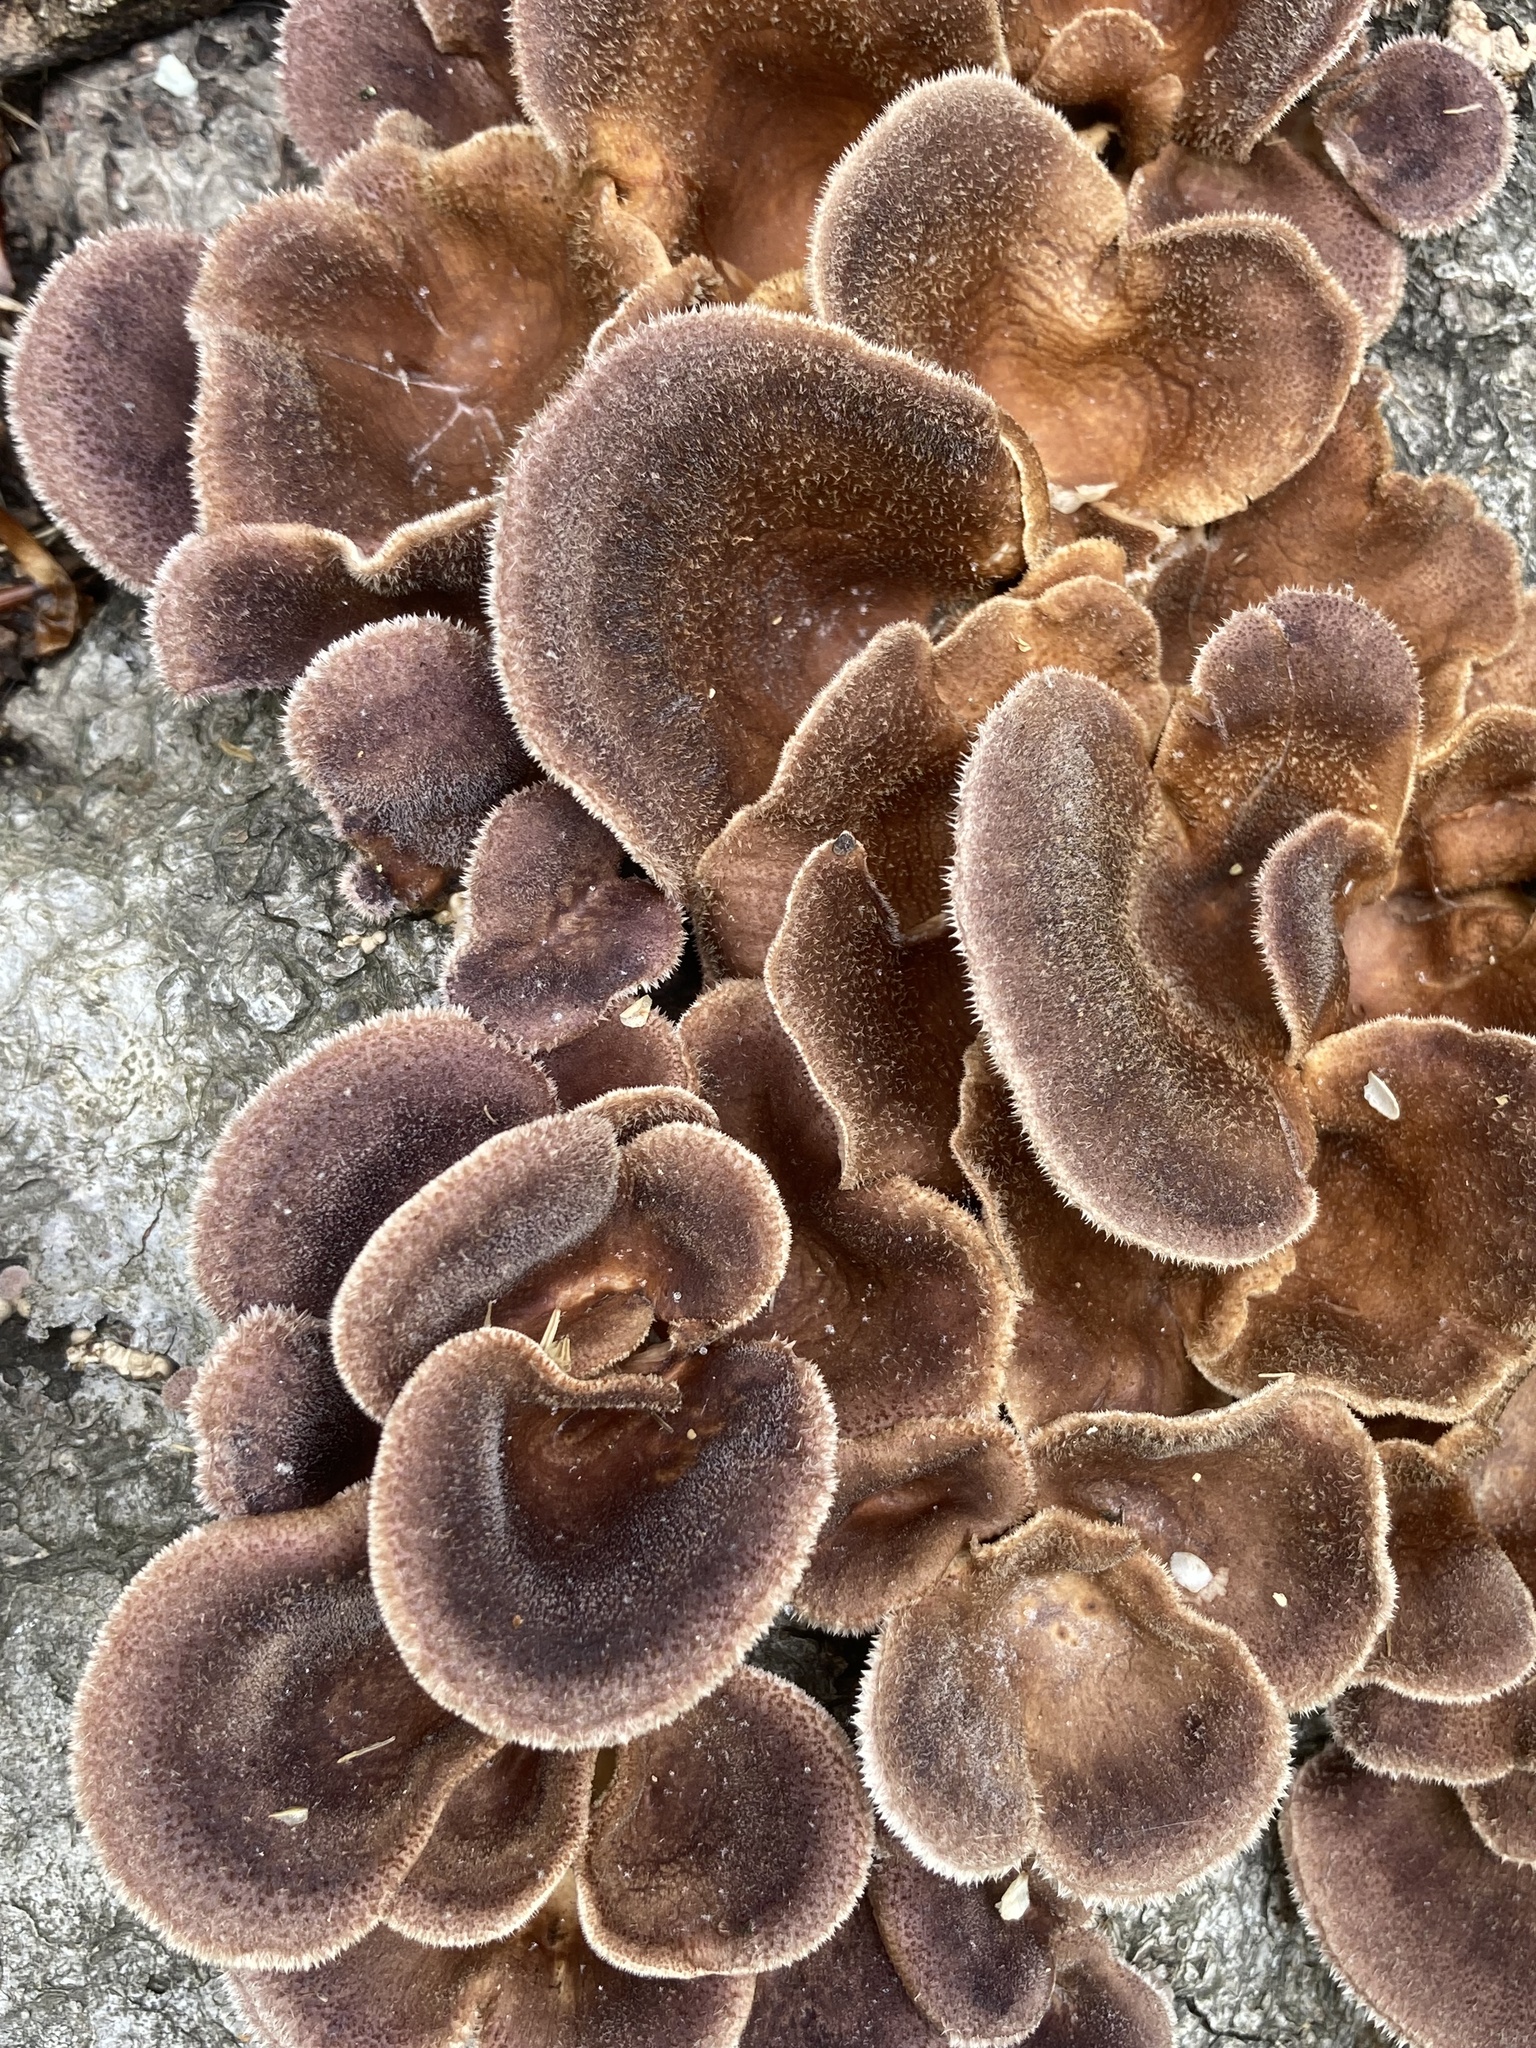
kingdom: Fungi
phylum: Basidiomycota
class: Agaricomycetes
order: Polyporales
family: Panaceae
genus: Panus
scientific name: Panus neostrigosus
